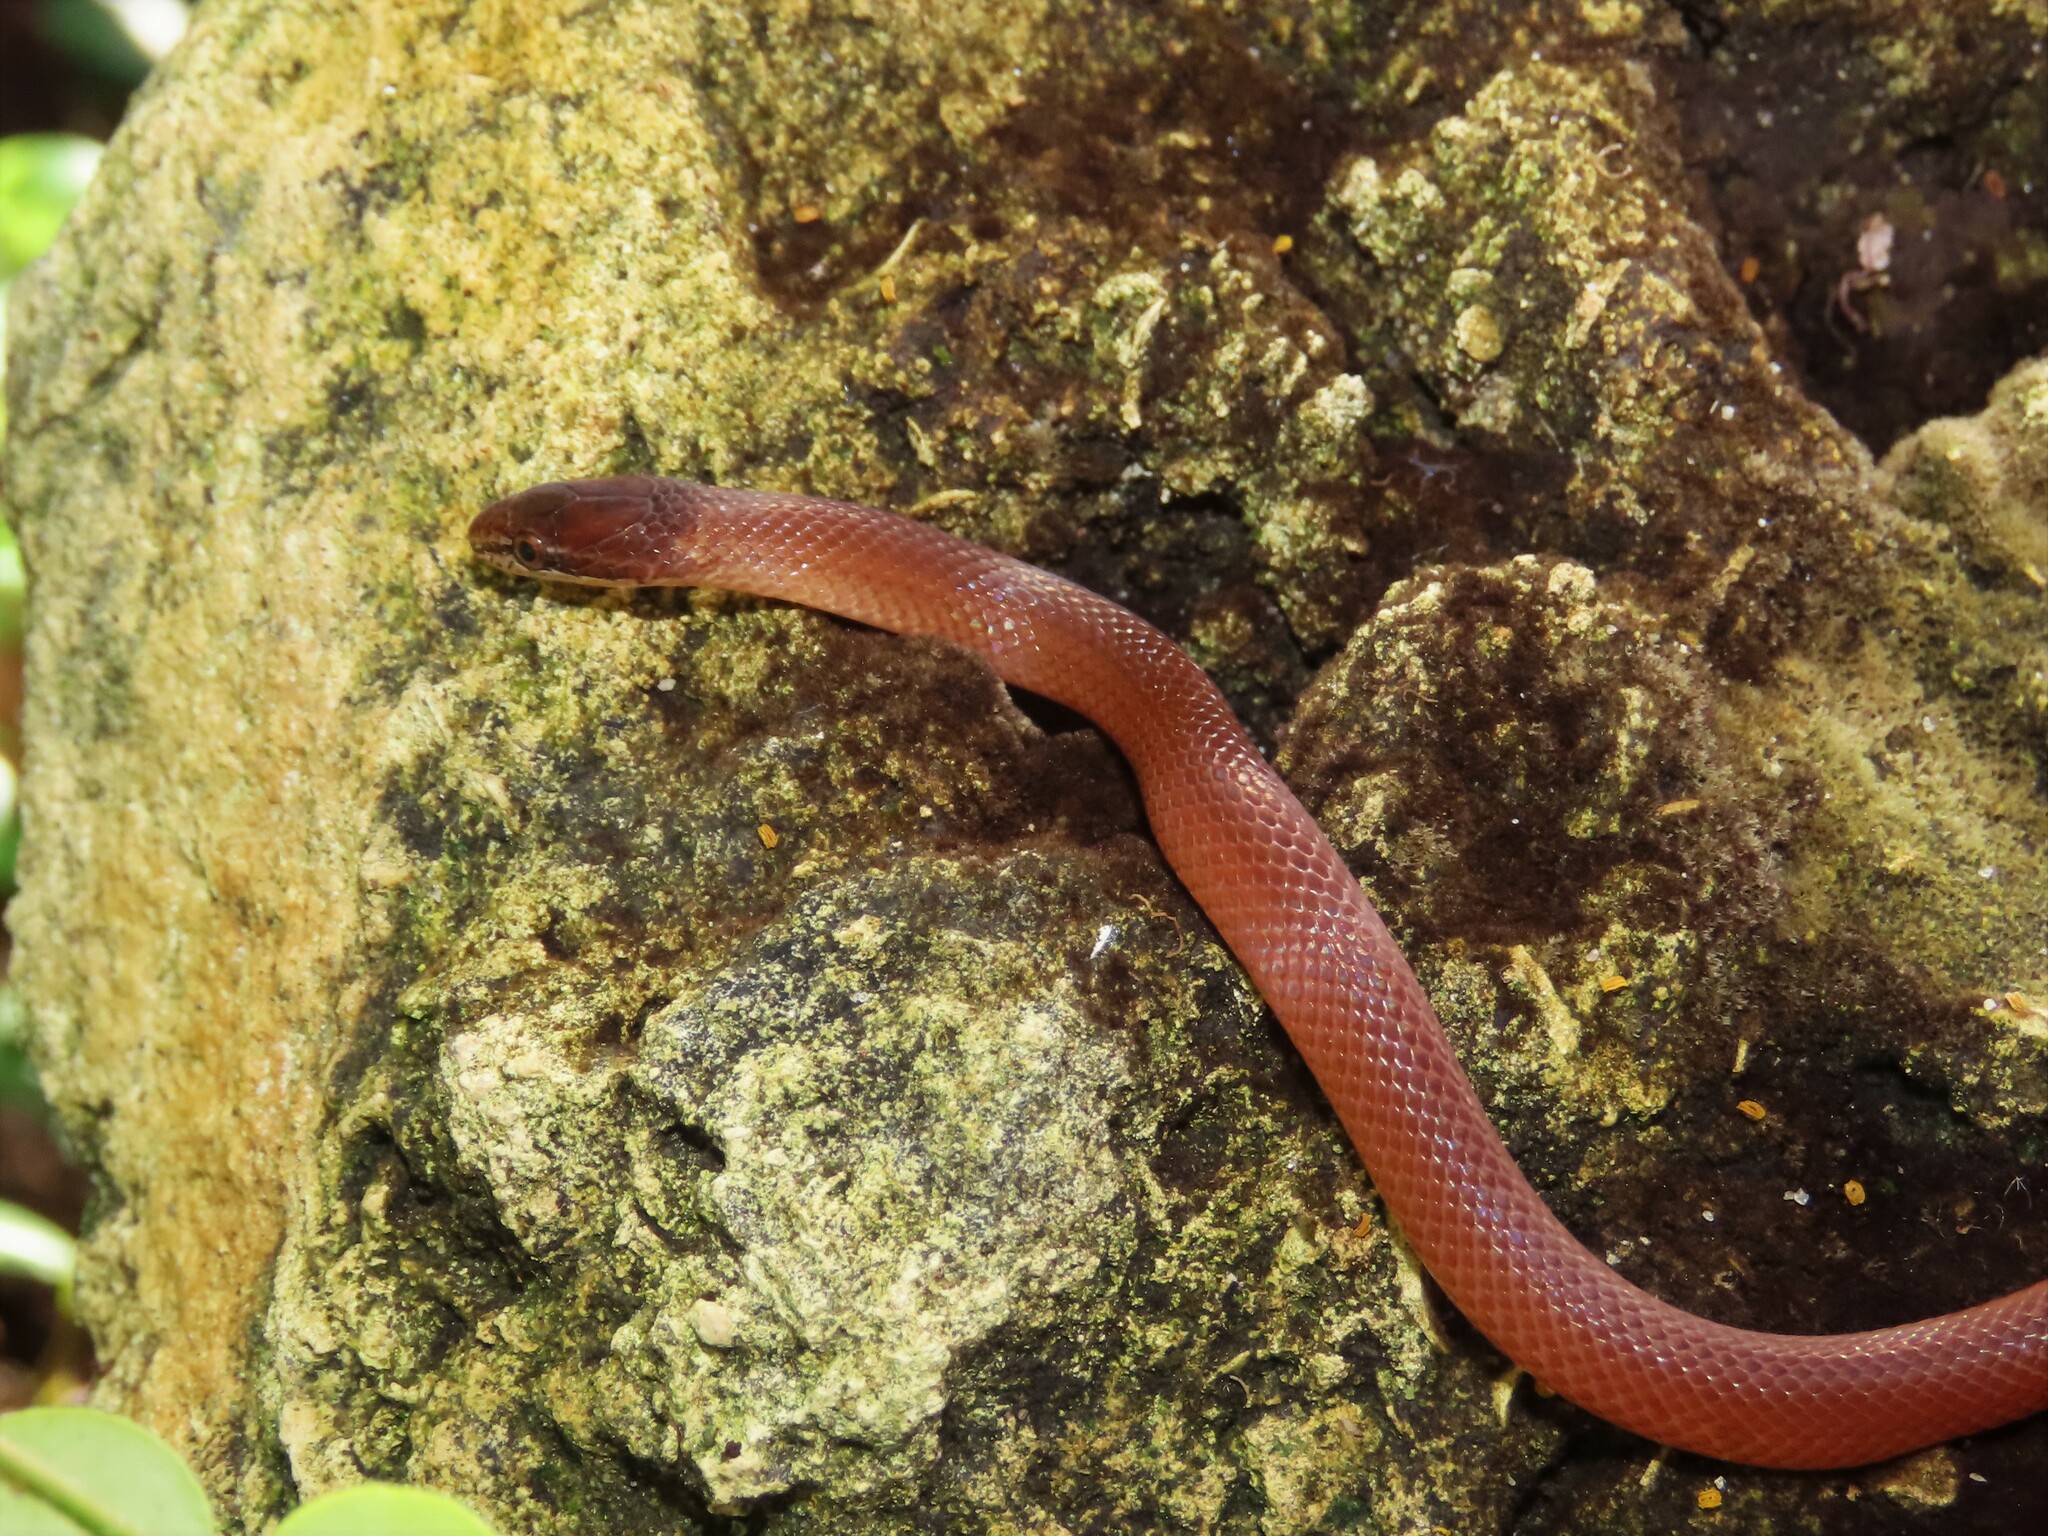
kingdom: Animalia
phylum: Chordata
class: Squamata
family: Colubridae
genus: Rhadinaea
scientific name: Rhadinaea flavilata
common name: Pine woods littersnake
